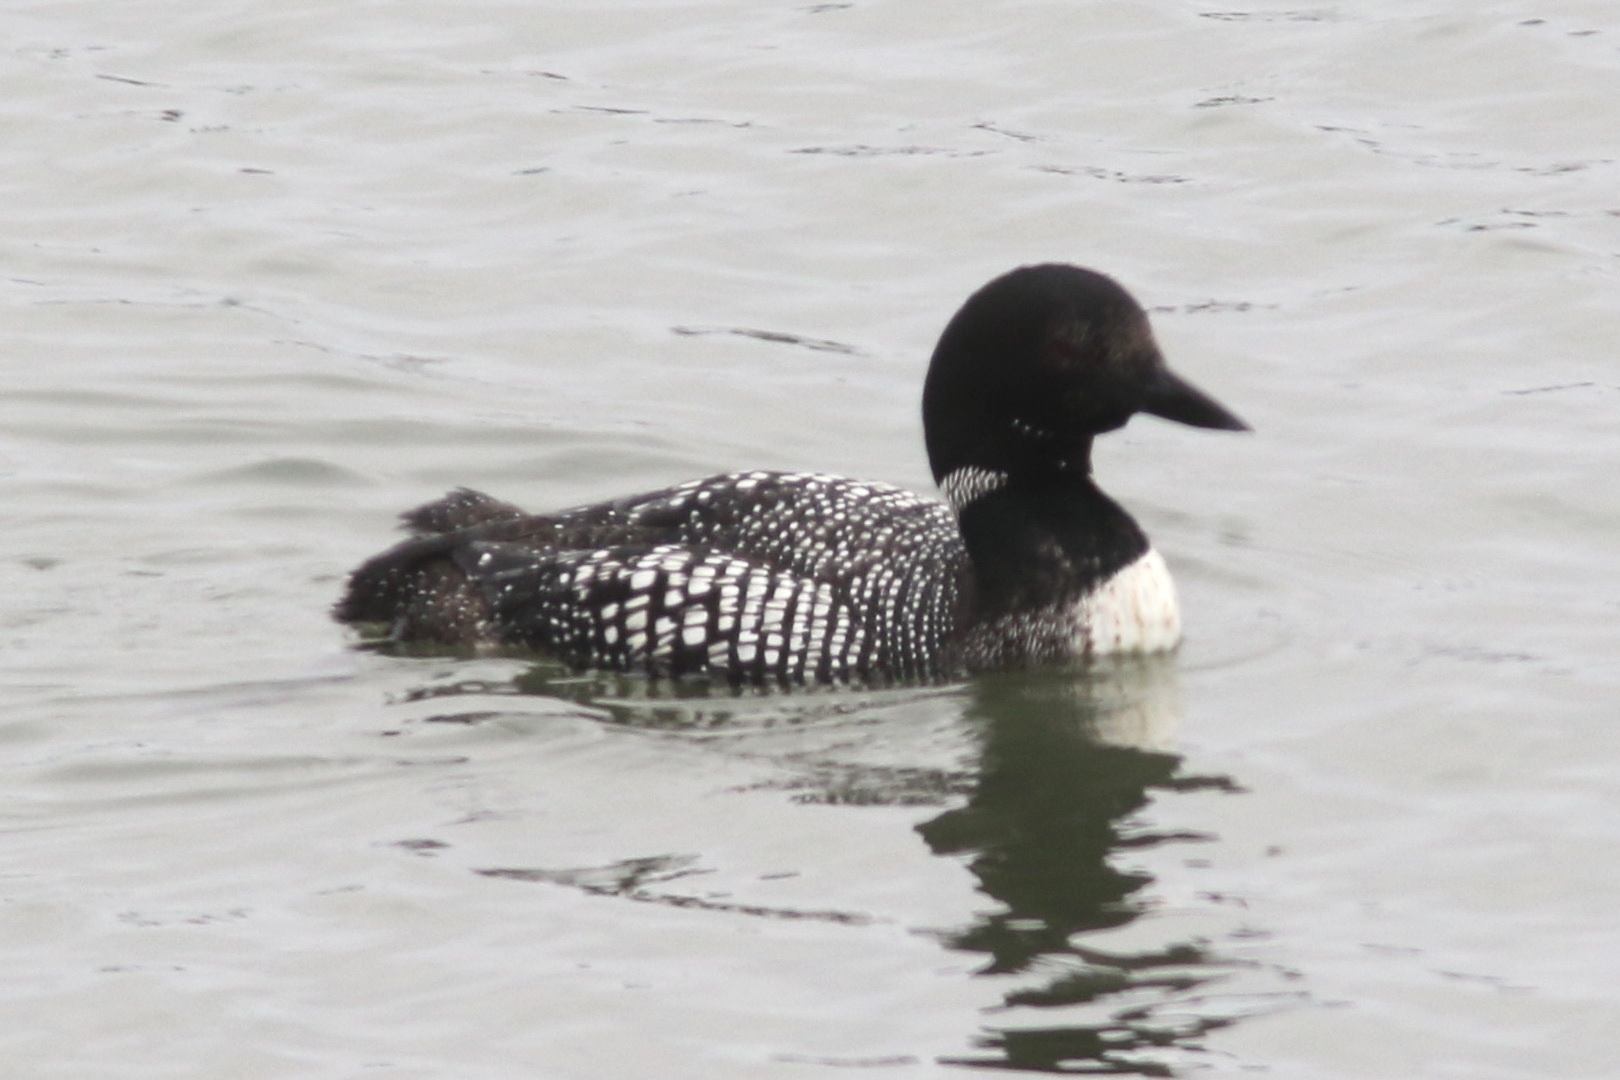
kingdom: Animalia
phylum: Chordata
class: Aves
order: Gaviiformes
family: Gaviidae
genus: Gavia
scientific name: Gavia immer
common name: Common loon
